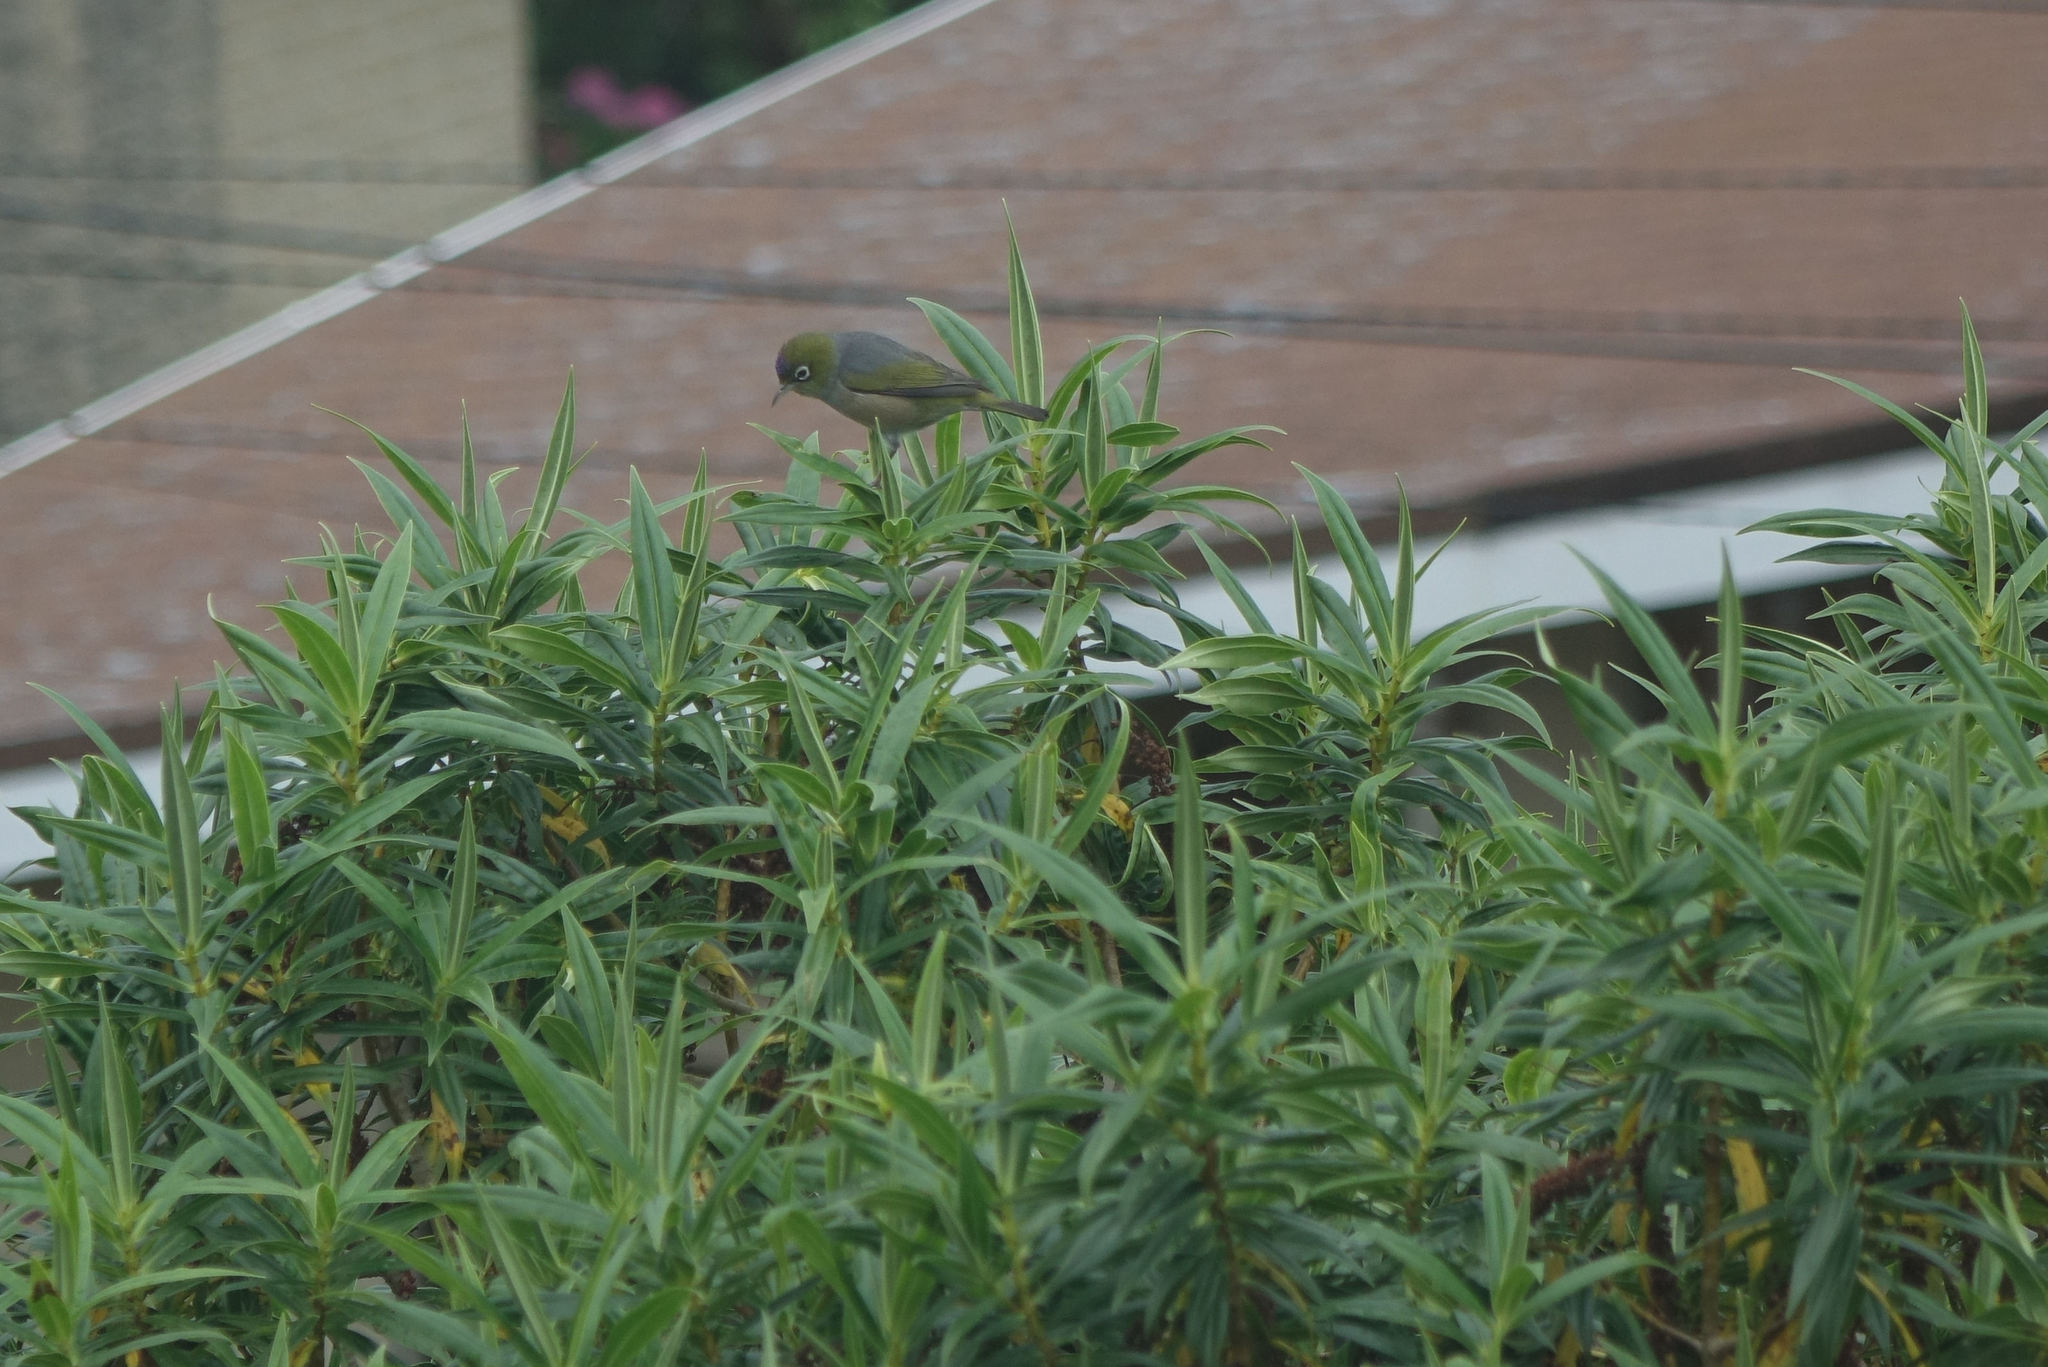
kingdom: Animalia
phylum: Chordata
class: Aves
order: Passeriformes
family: Zosteropidae
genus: Zosterops
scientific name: Zosterops lateralis
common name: Silvereye
